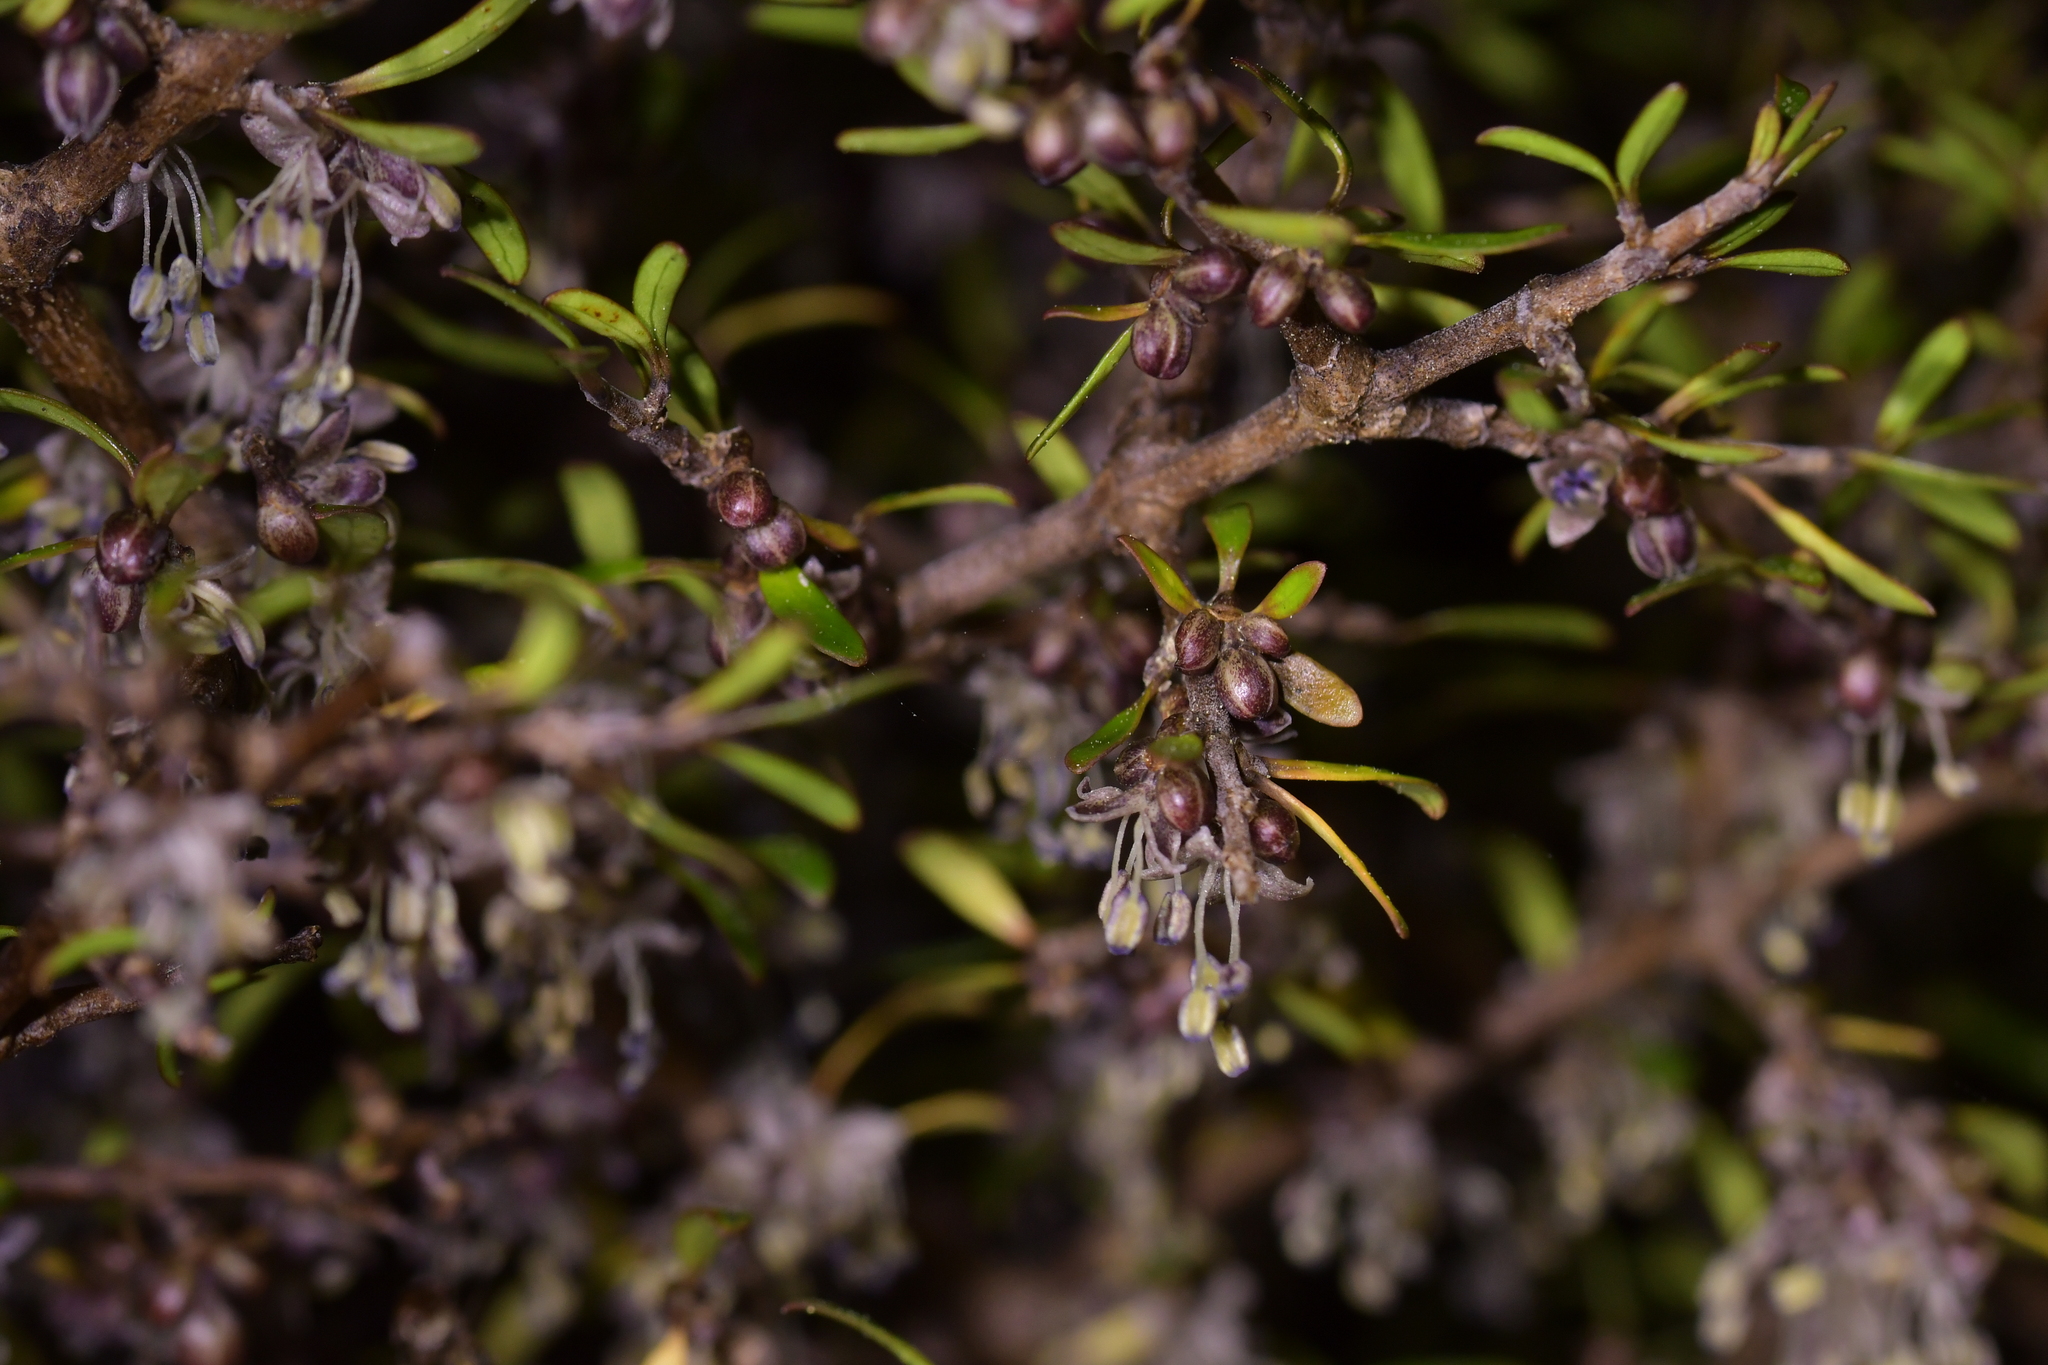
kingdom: Plantae
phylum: Tracheophyta
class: Magnoliopsida
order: Gentianales
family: Rubiaceae
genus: Coprosma
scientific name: Coprosma propinqua
